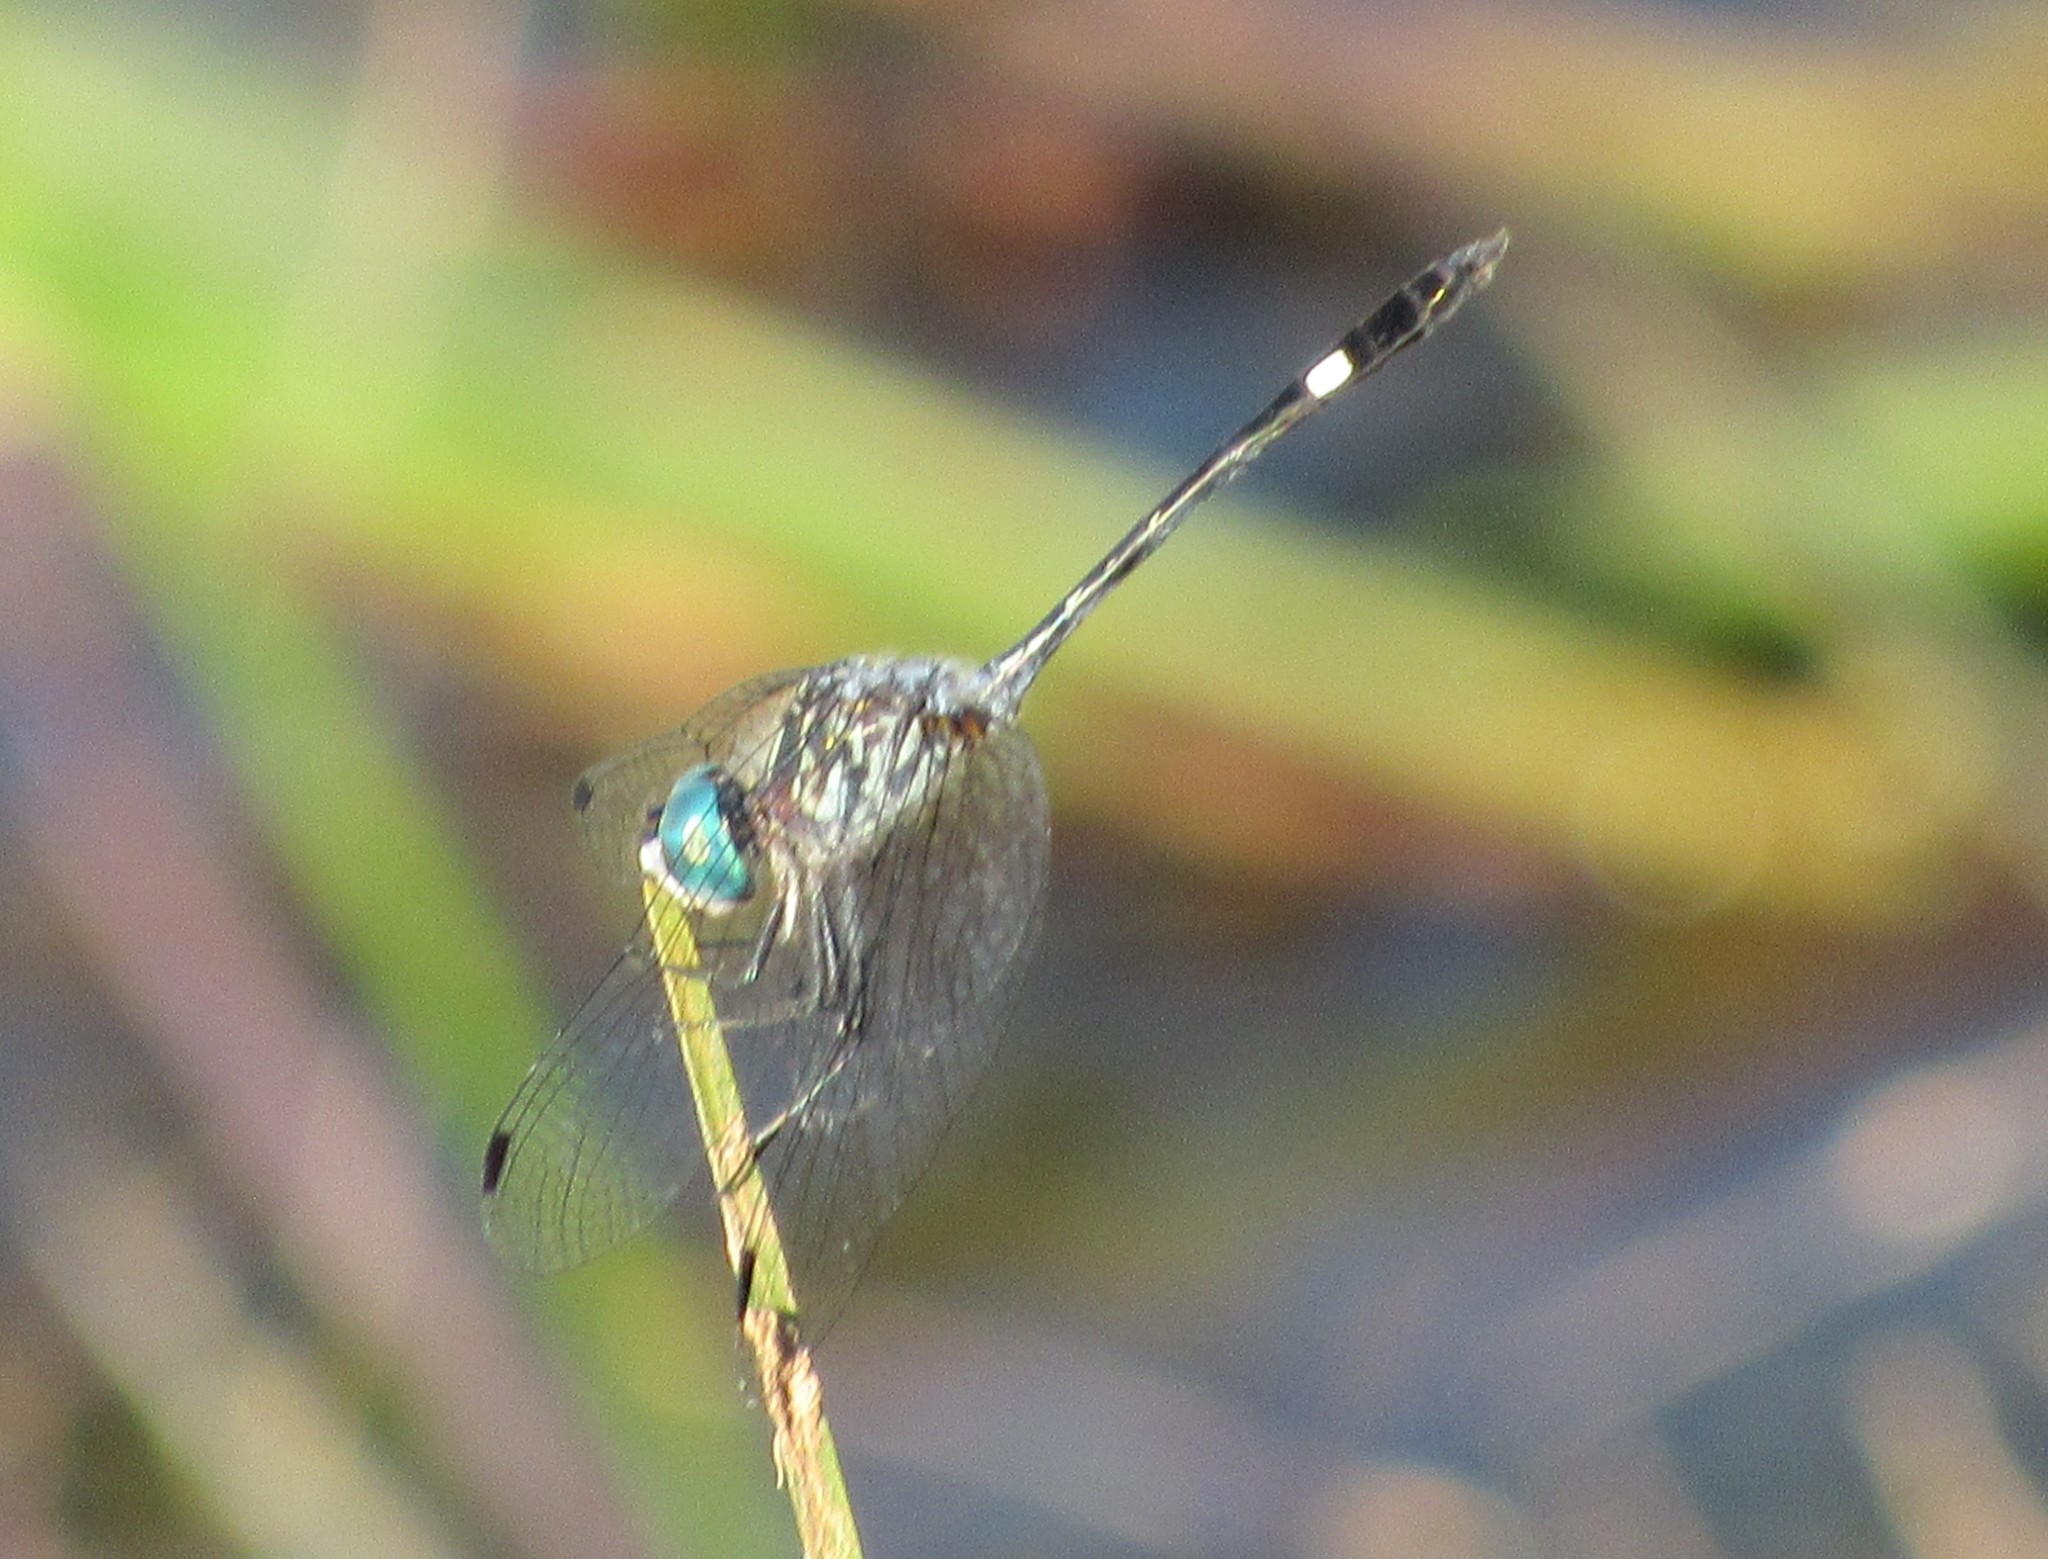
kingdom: Animalia
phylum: Arthropoda
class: Insecta
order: Odonata
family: Libellulidae
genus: Micrathyria
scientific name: Micrathyria ocellata
